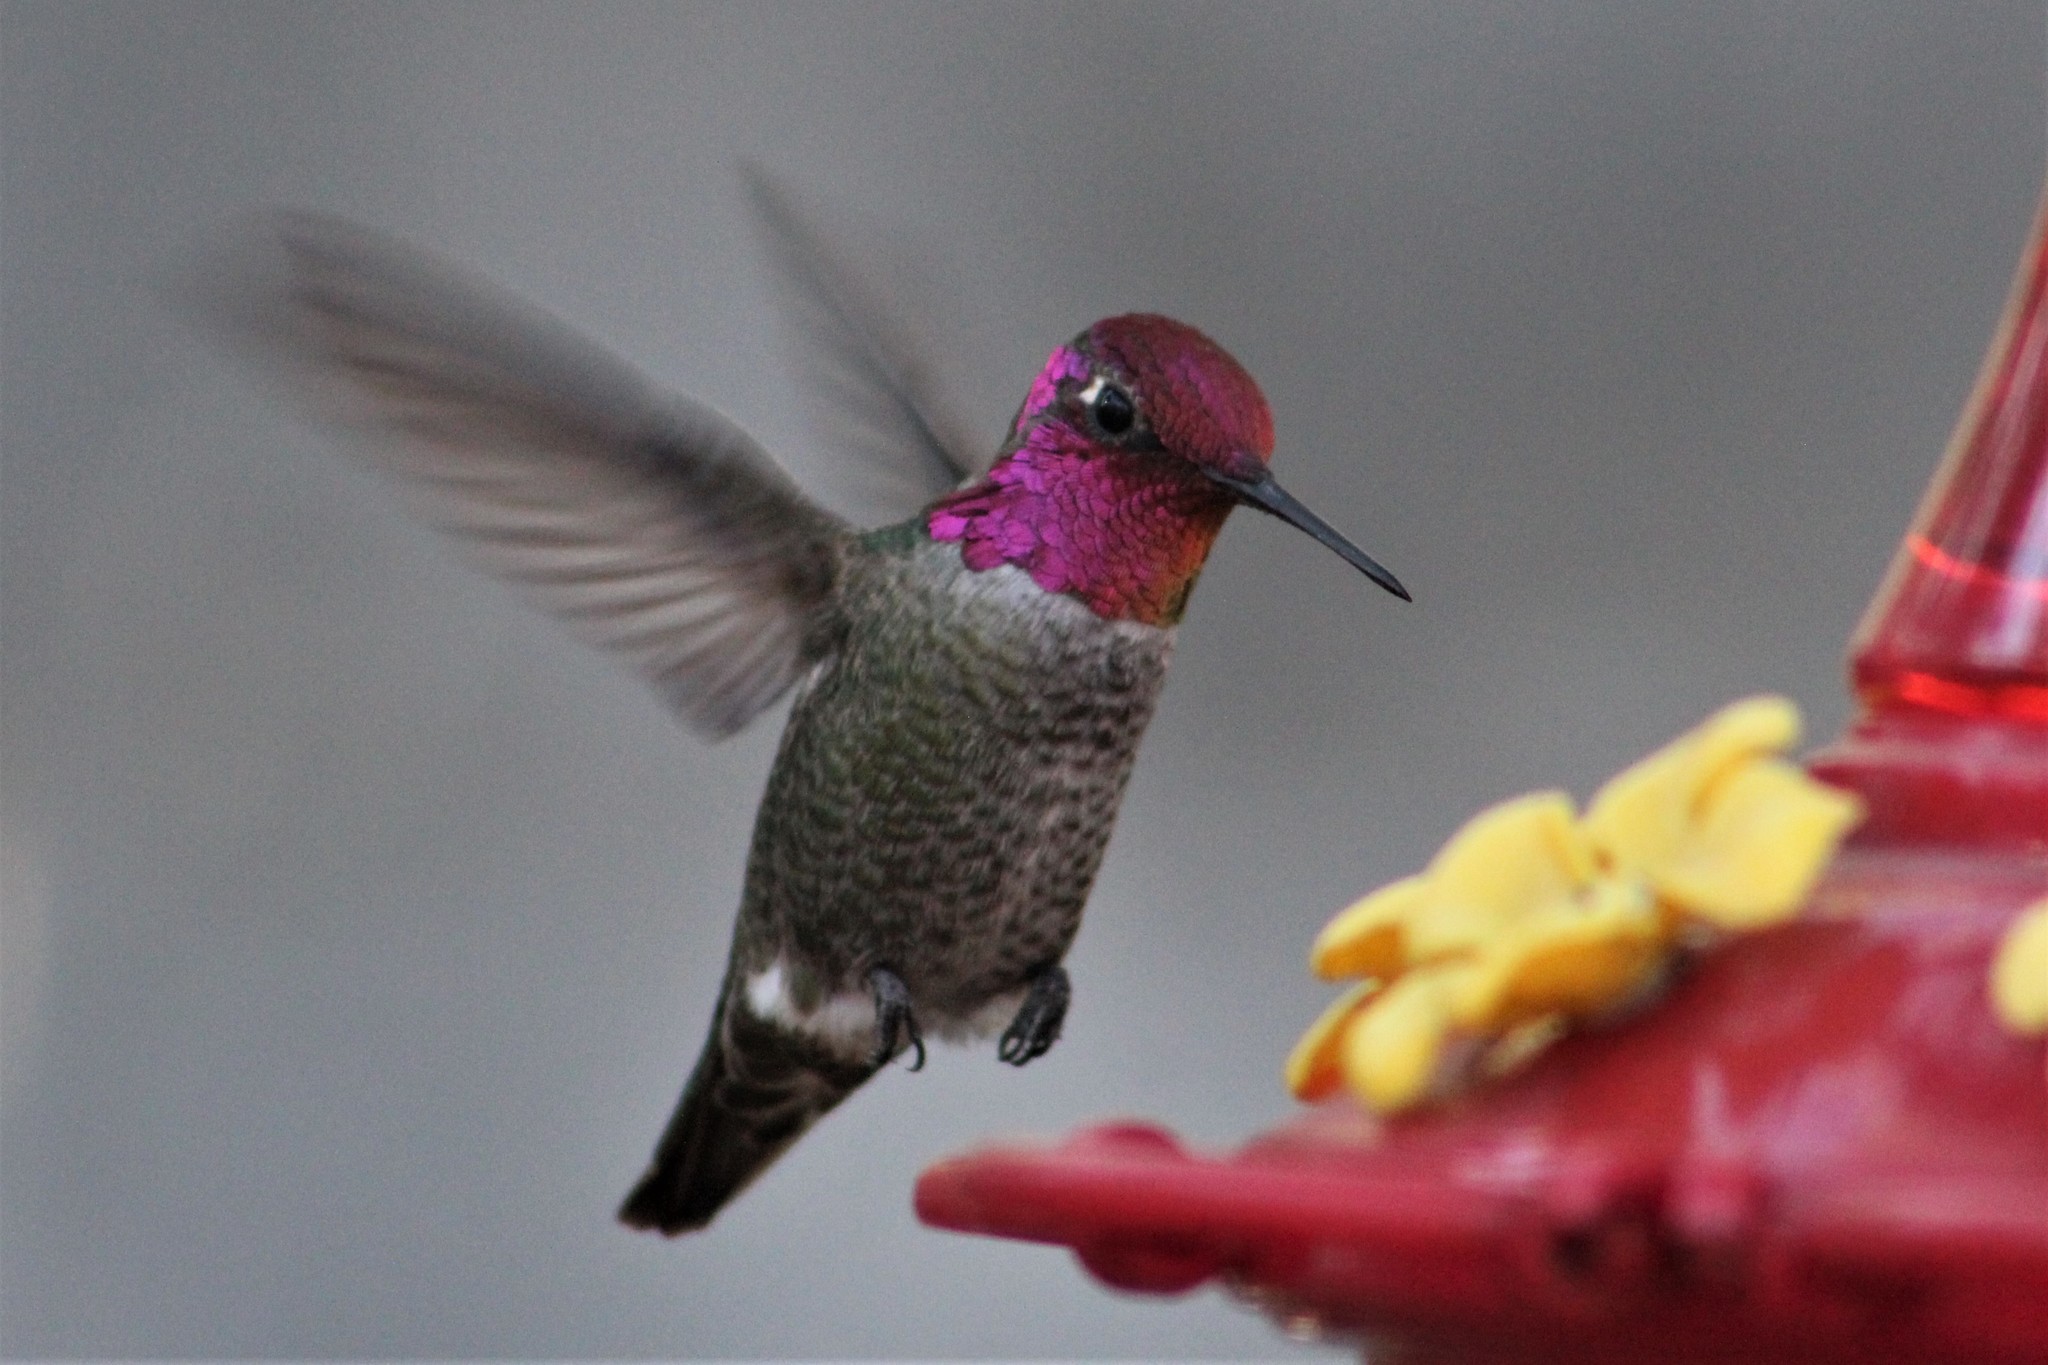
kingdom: Animalia
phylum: Chordata
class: Aves
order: Apodiformes
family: Trochilidae
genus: Calypte
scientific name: Calypte anna
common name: Anna's hummingbird
